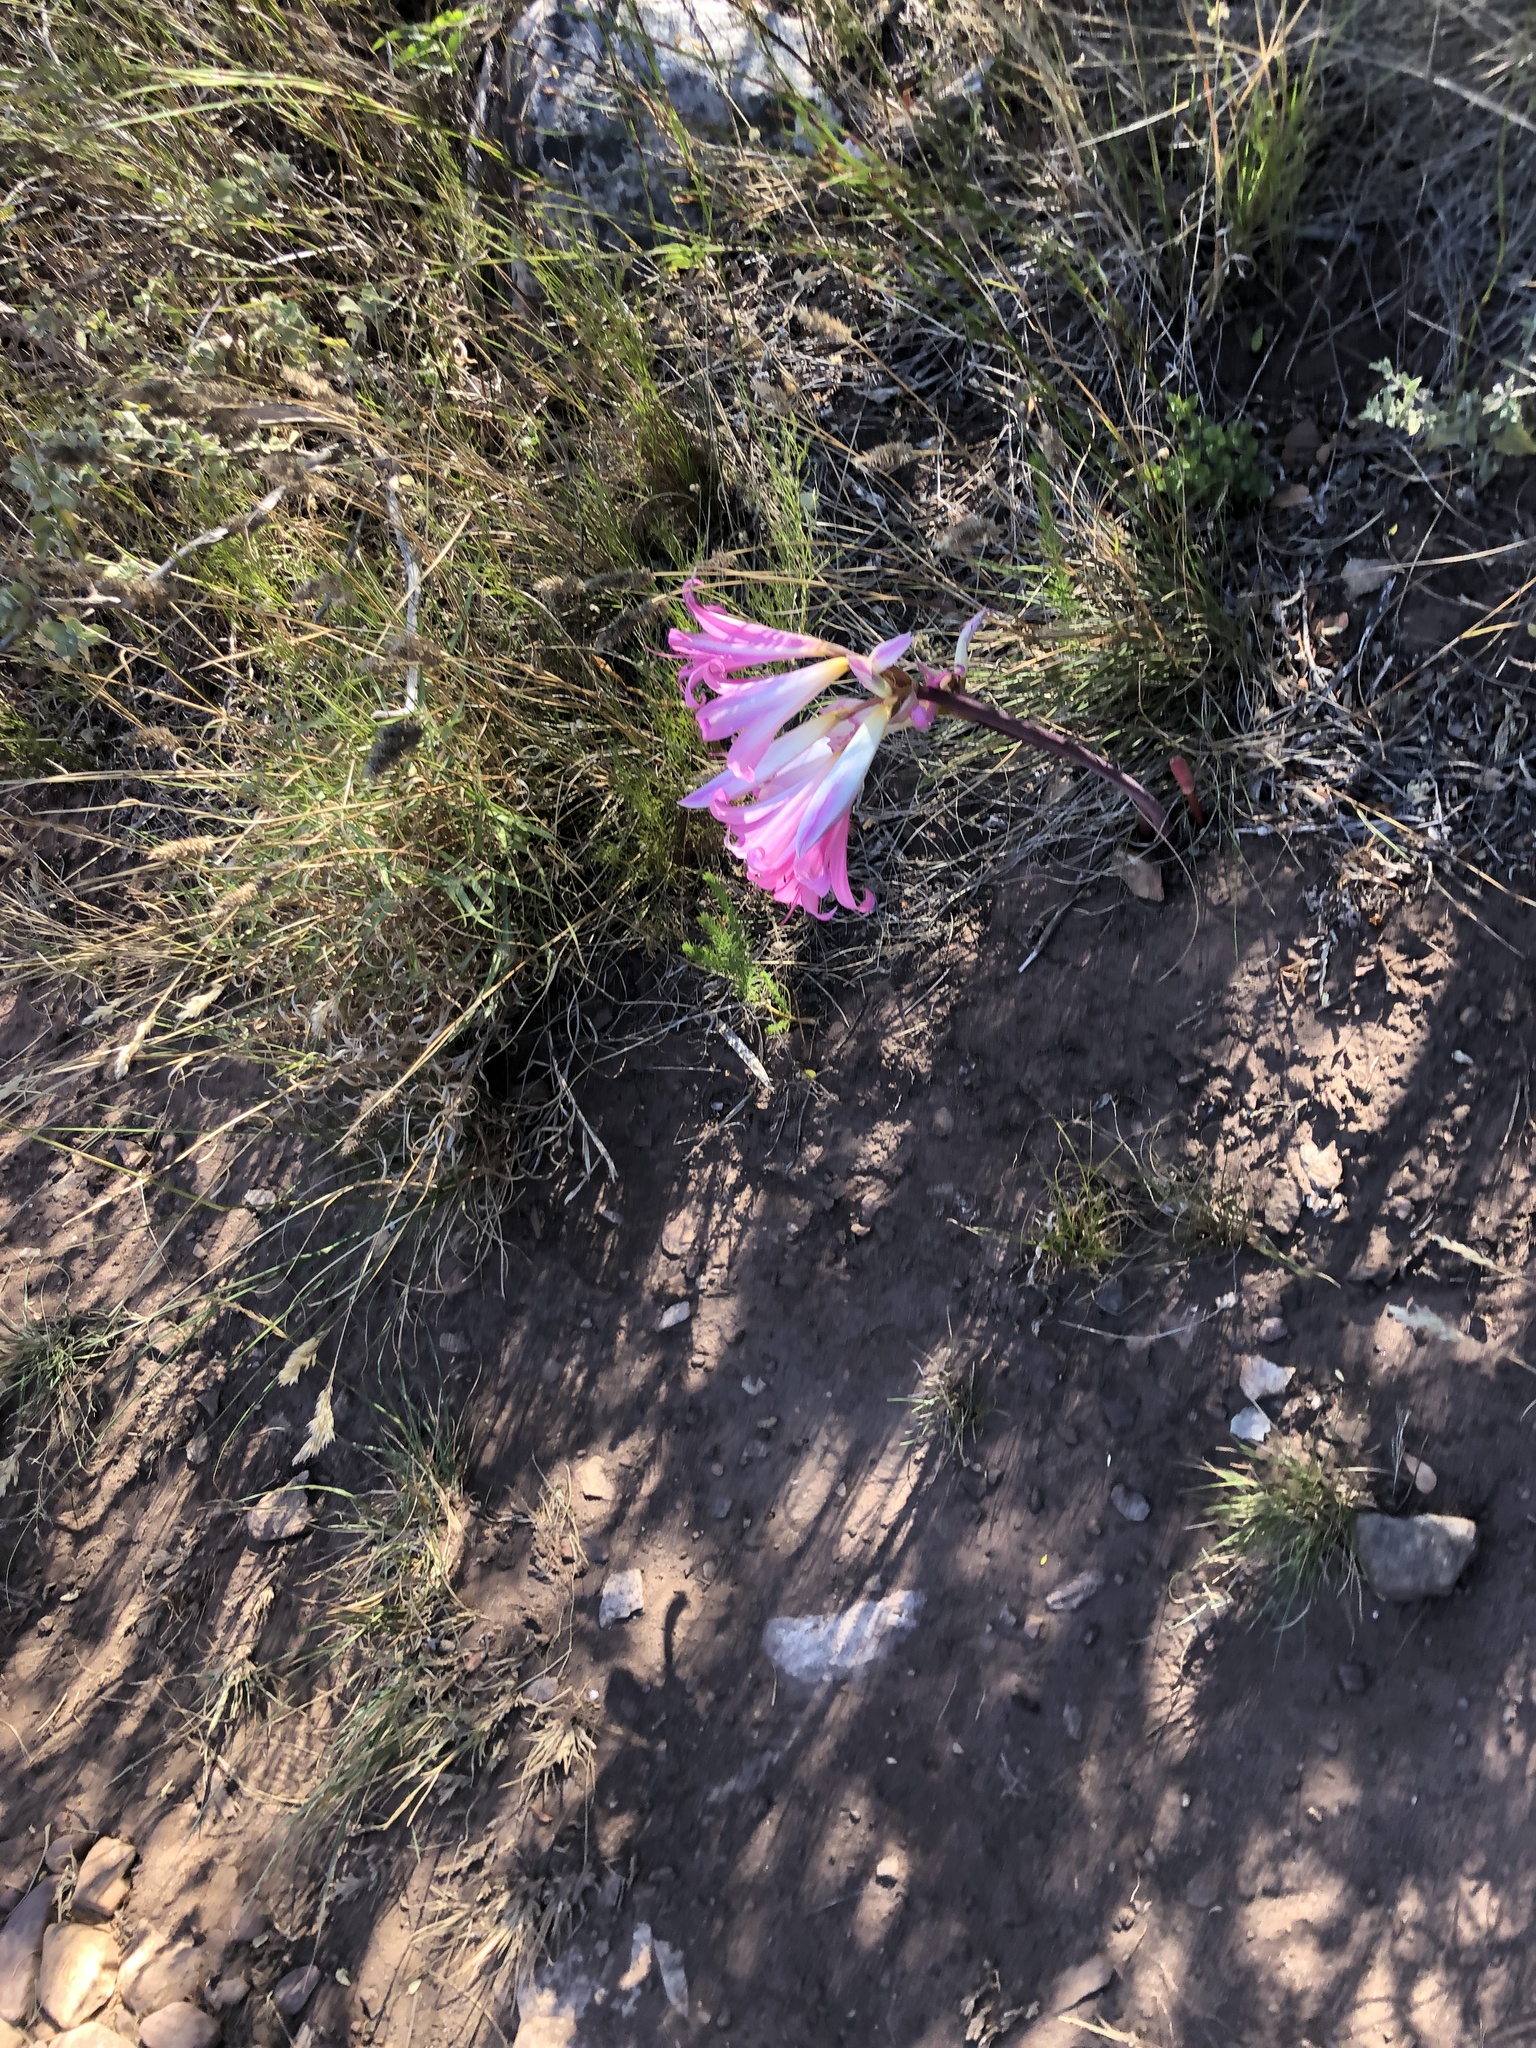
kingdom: Plantae
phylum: Tracheophyta
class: Liliopsida
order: Asparagales
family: Amaryllidaceae
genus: Amaryllis
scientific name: Amaryllis belladonna
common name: Jersey lily
